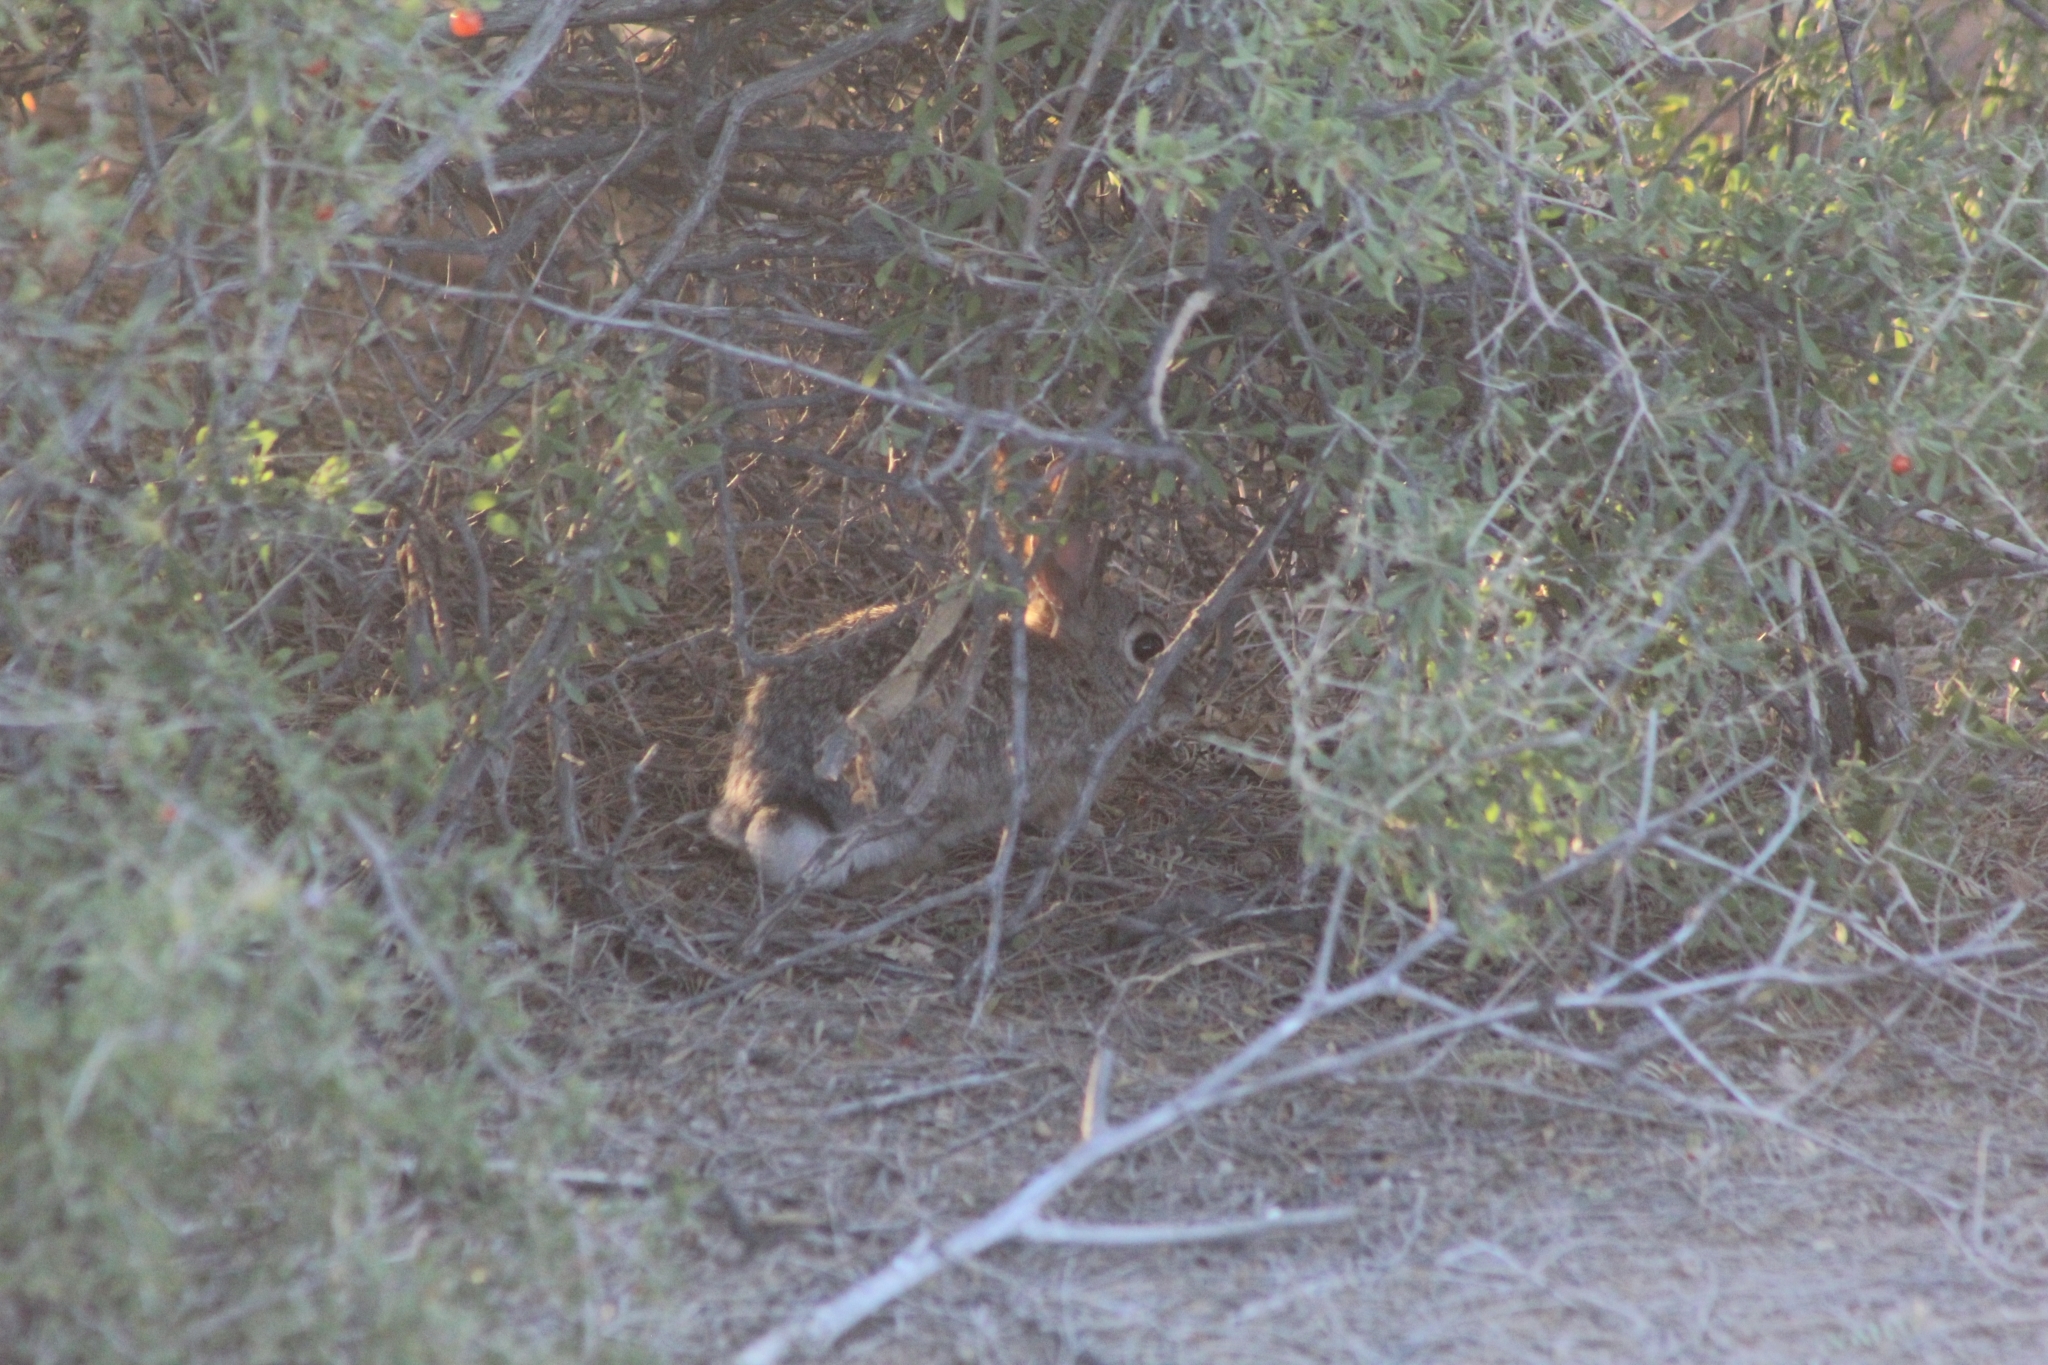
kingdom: Animalia
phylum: Chordata
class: Mammalia
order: Lagomorpha
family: Leporidae
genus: Sylvilagus
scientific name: Sylvilagus audubonii
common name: Desert cottontail
